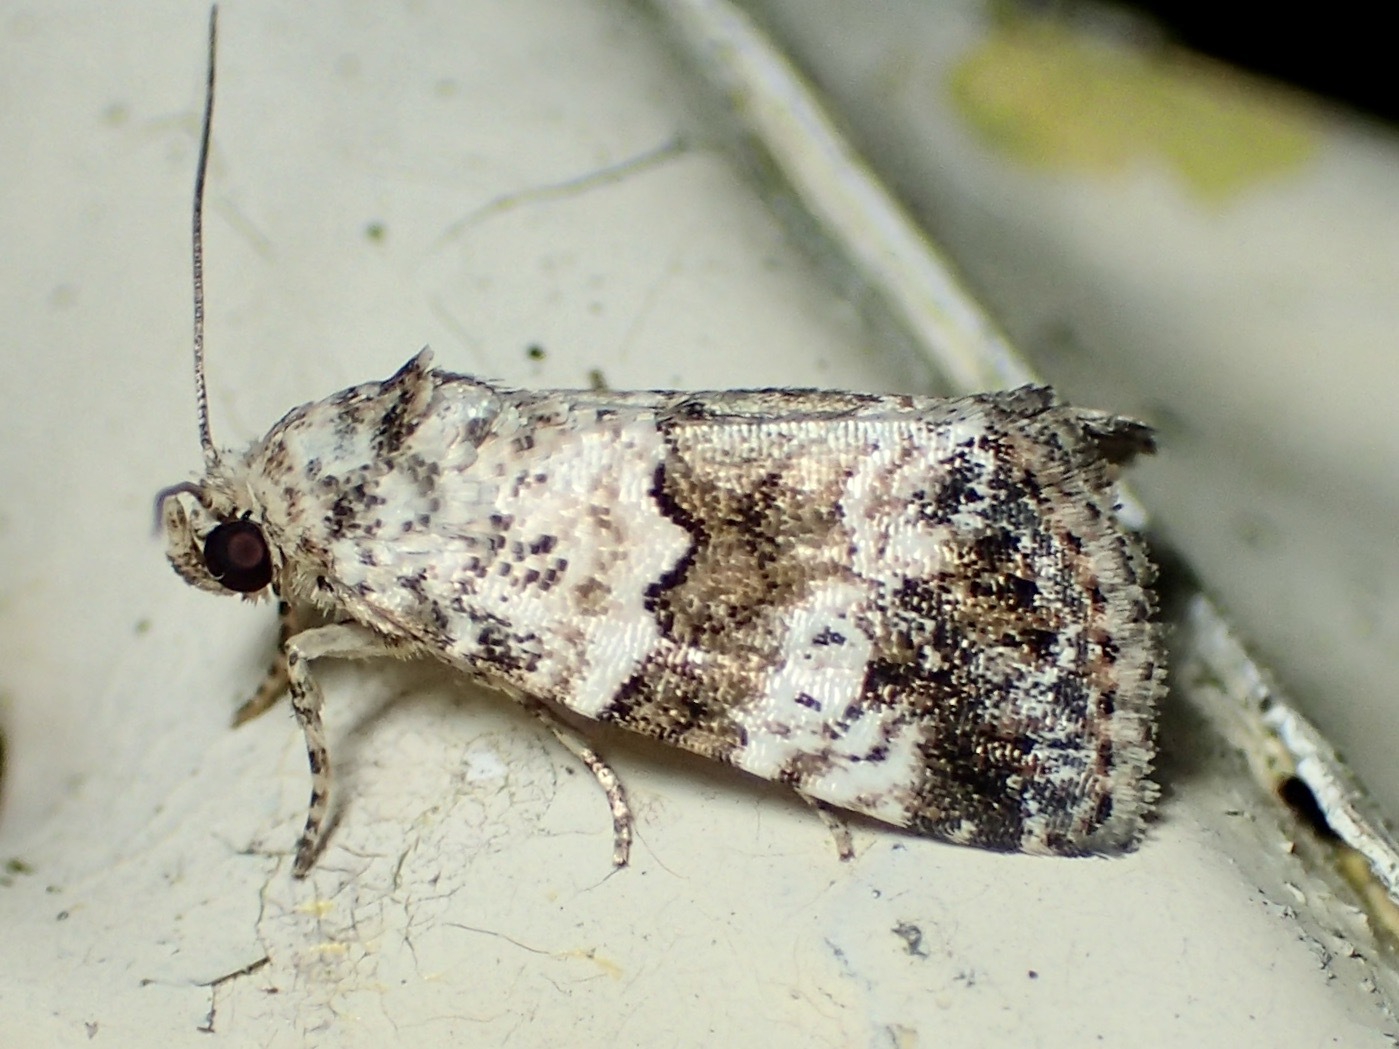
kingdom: Animalia
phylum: Arthropoda
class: Insecta
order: Lepidoptera
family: Noctuidae
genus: Maliattha
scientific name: Maliattha signifera
